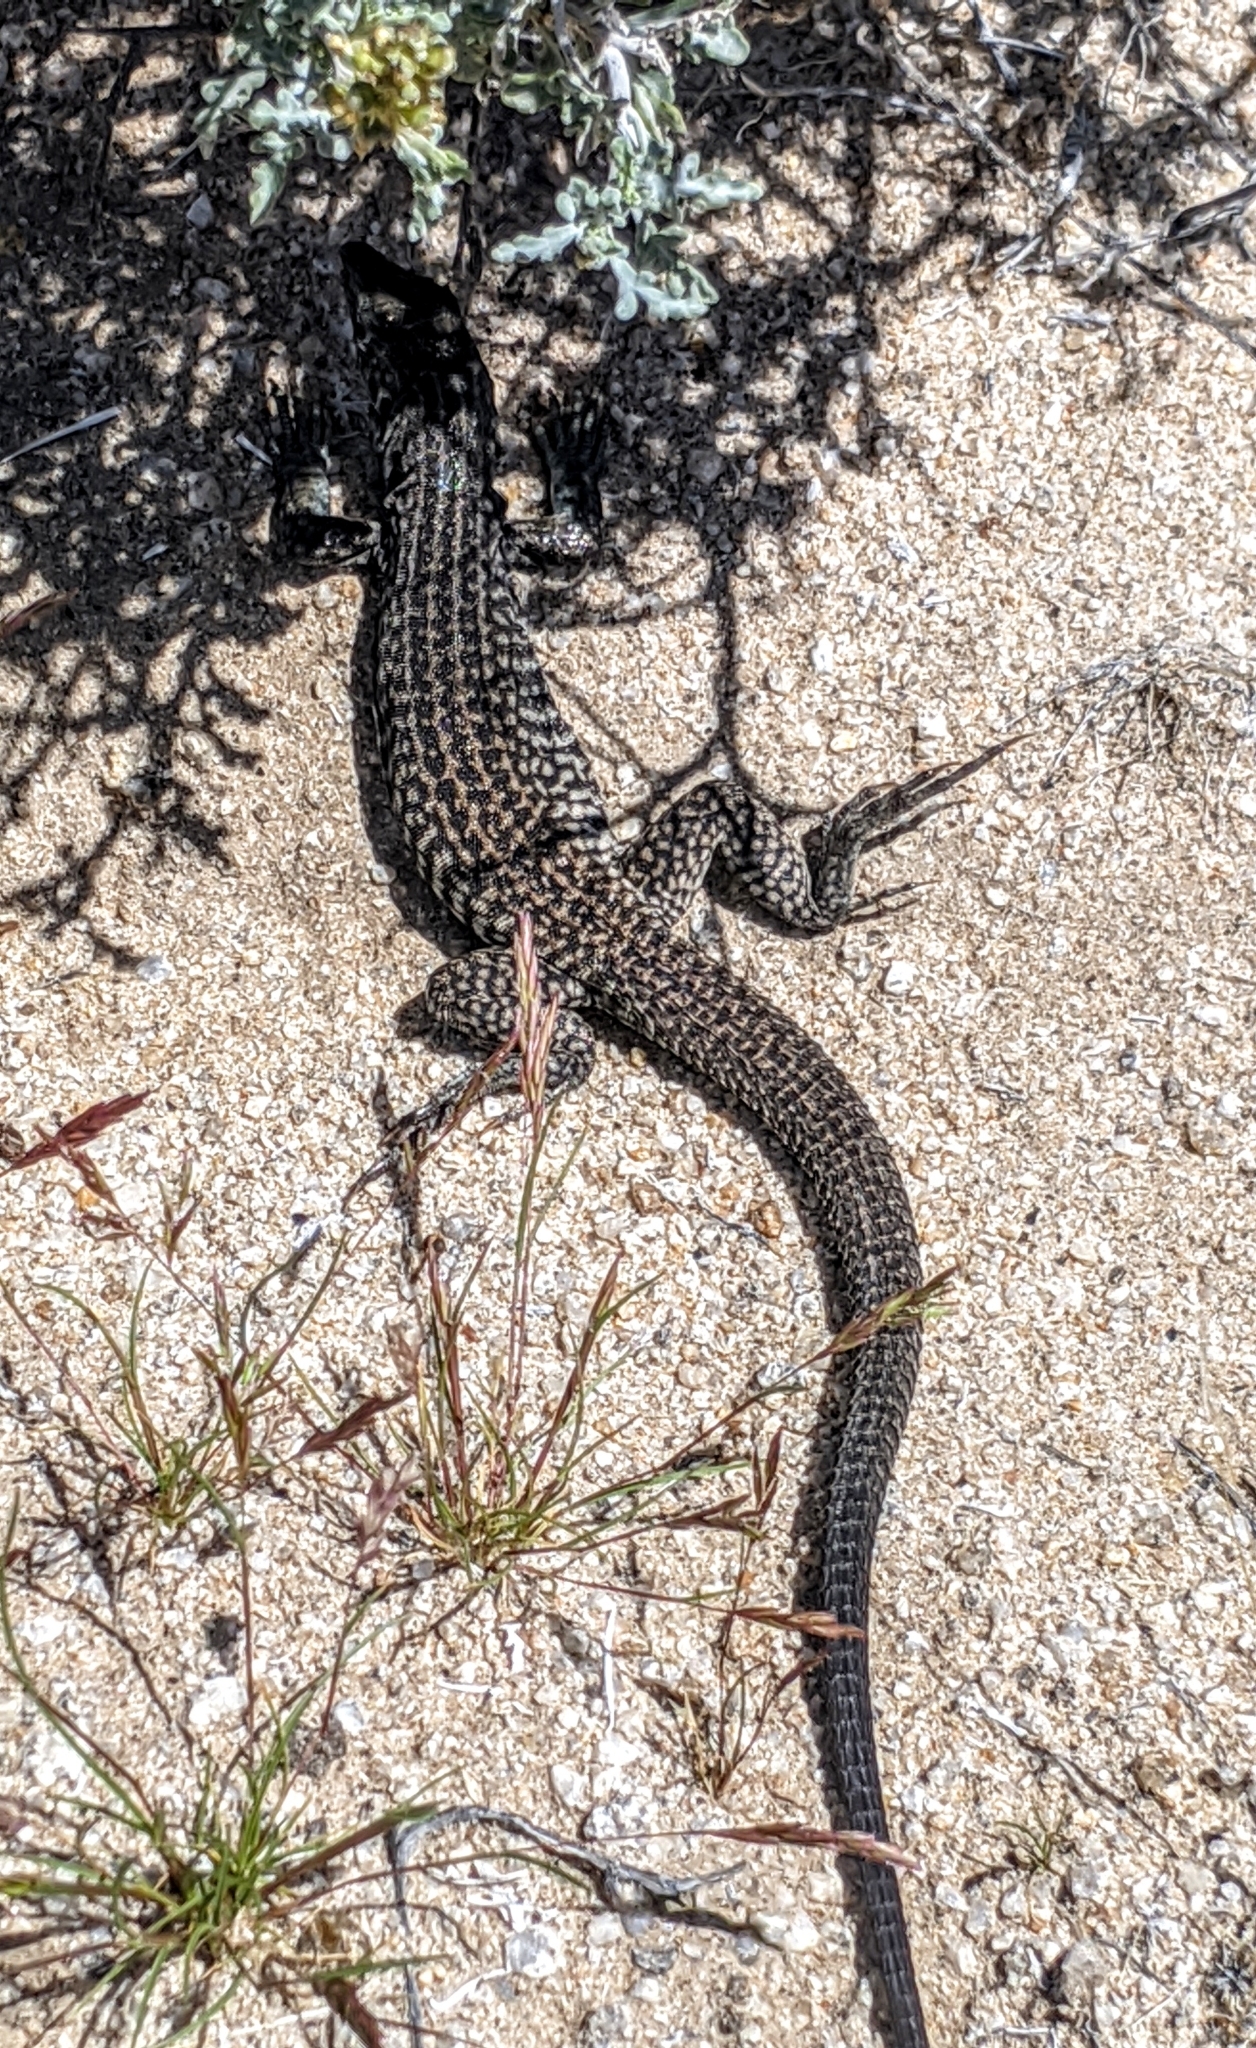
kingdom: Animalia
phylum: Chordata
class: Squamata
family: Teiidae
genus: Aspidoscelis
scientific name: Aspidoscelis tigris
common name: Tiger whiptail
